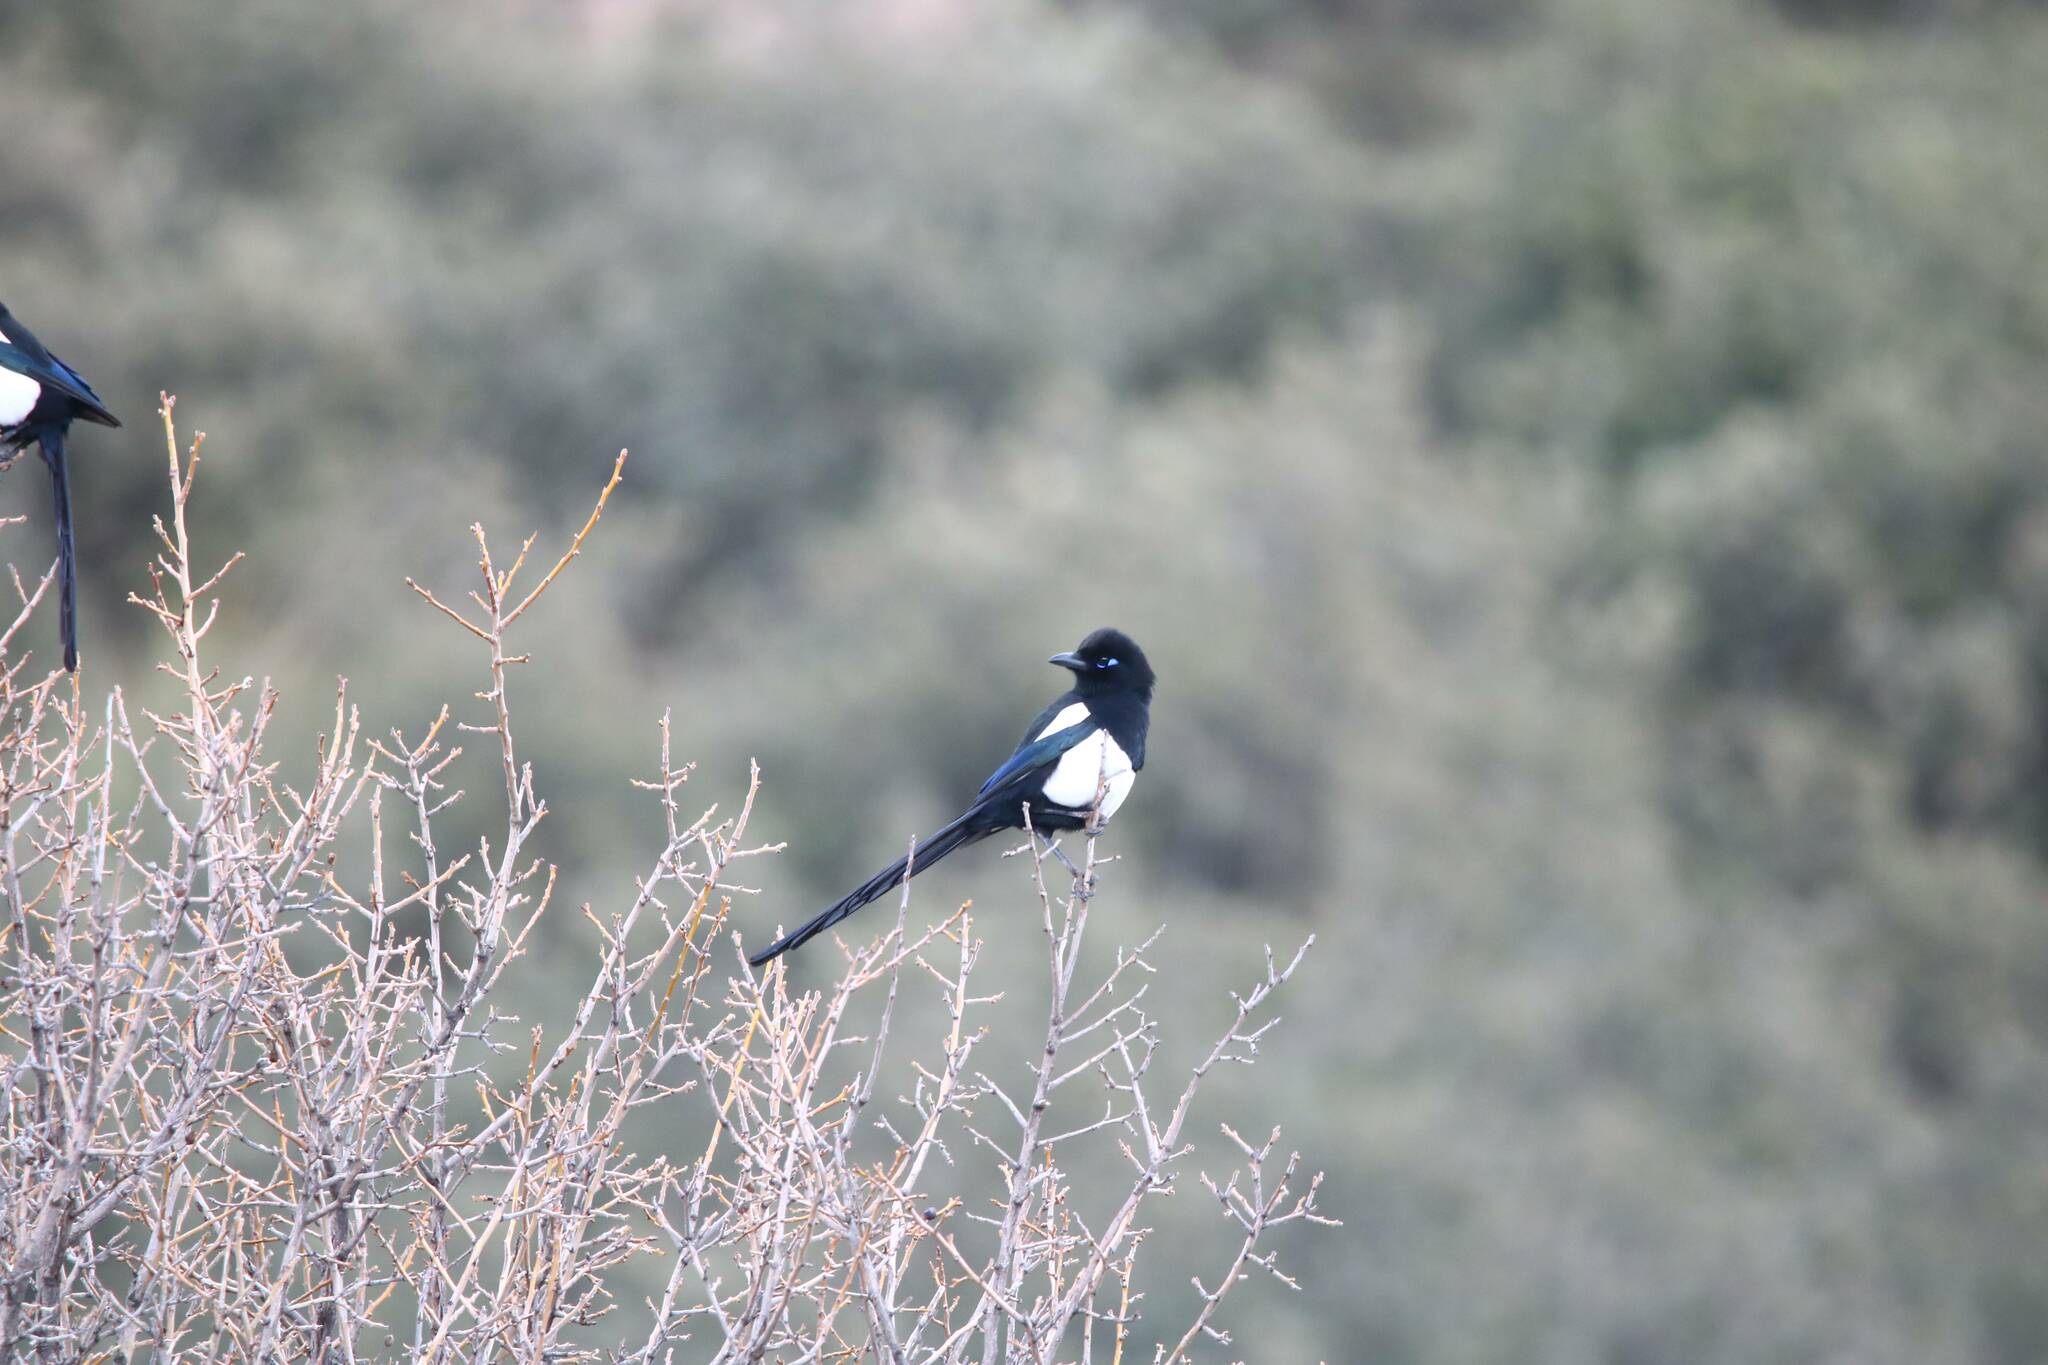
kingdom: Animalia
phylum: Chordata
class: Aves
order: Passeriformes
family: Corvidae
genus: Pica
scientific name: Pica mauritanica
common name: Maghreb magpie
